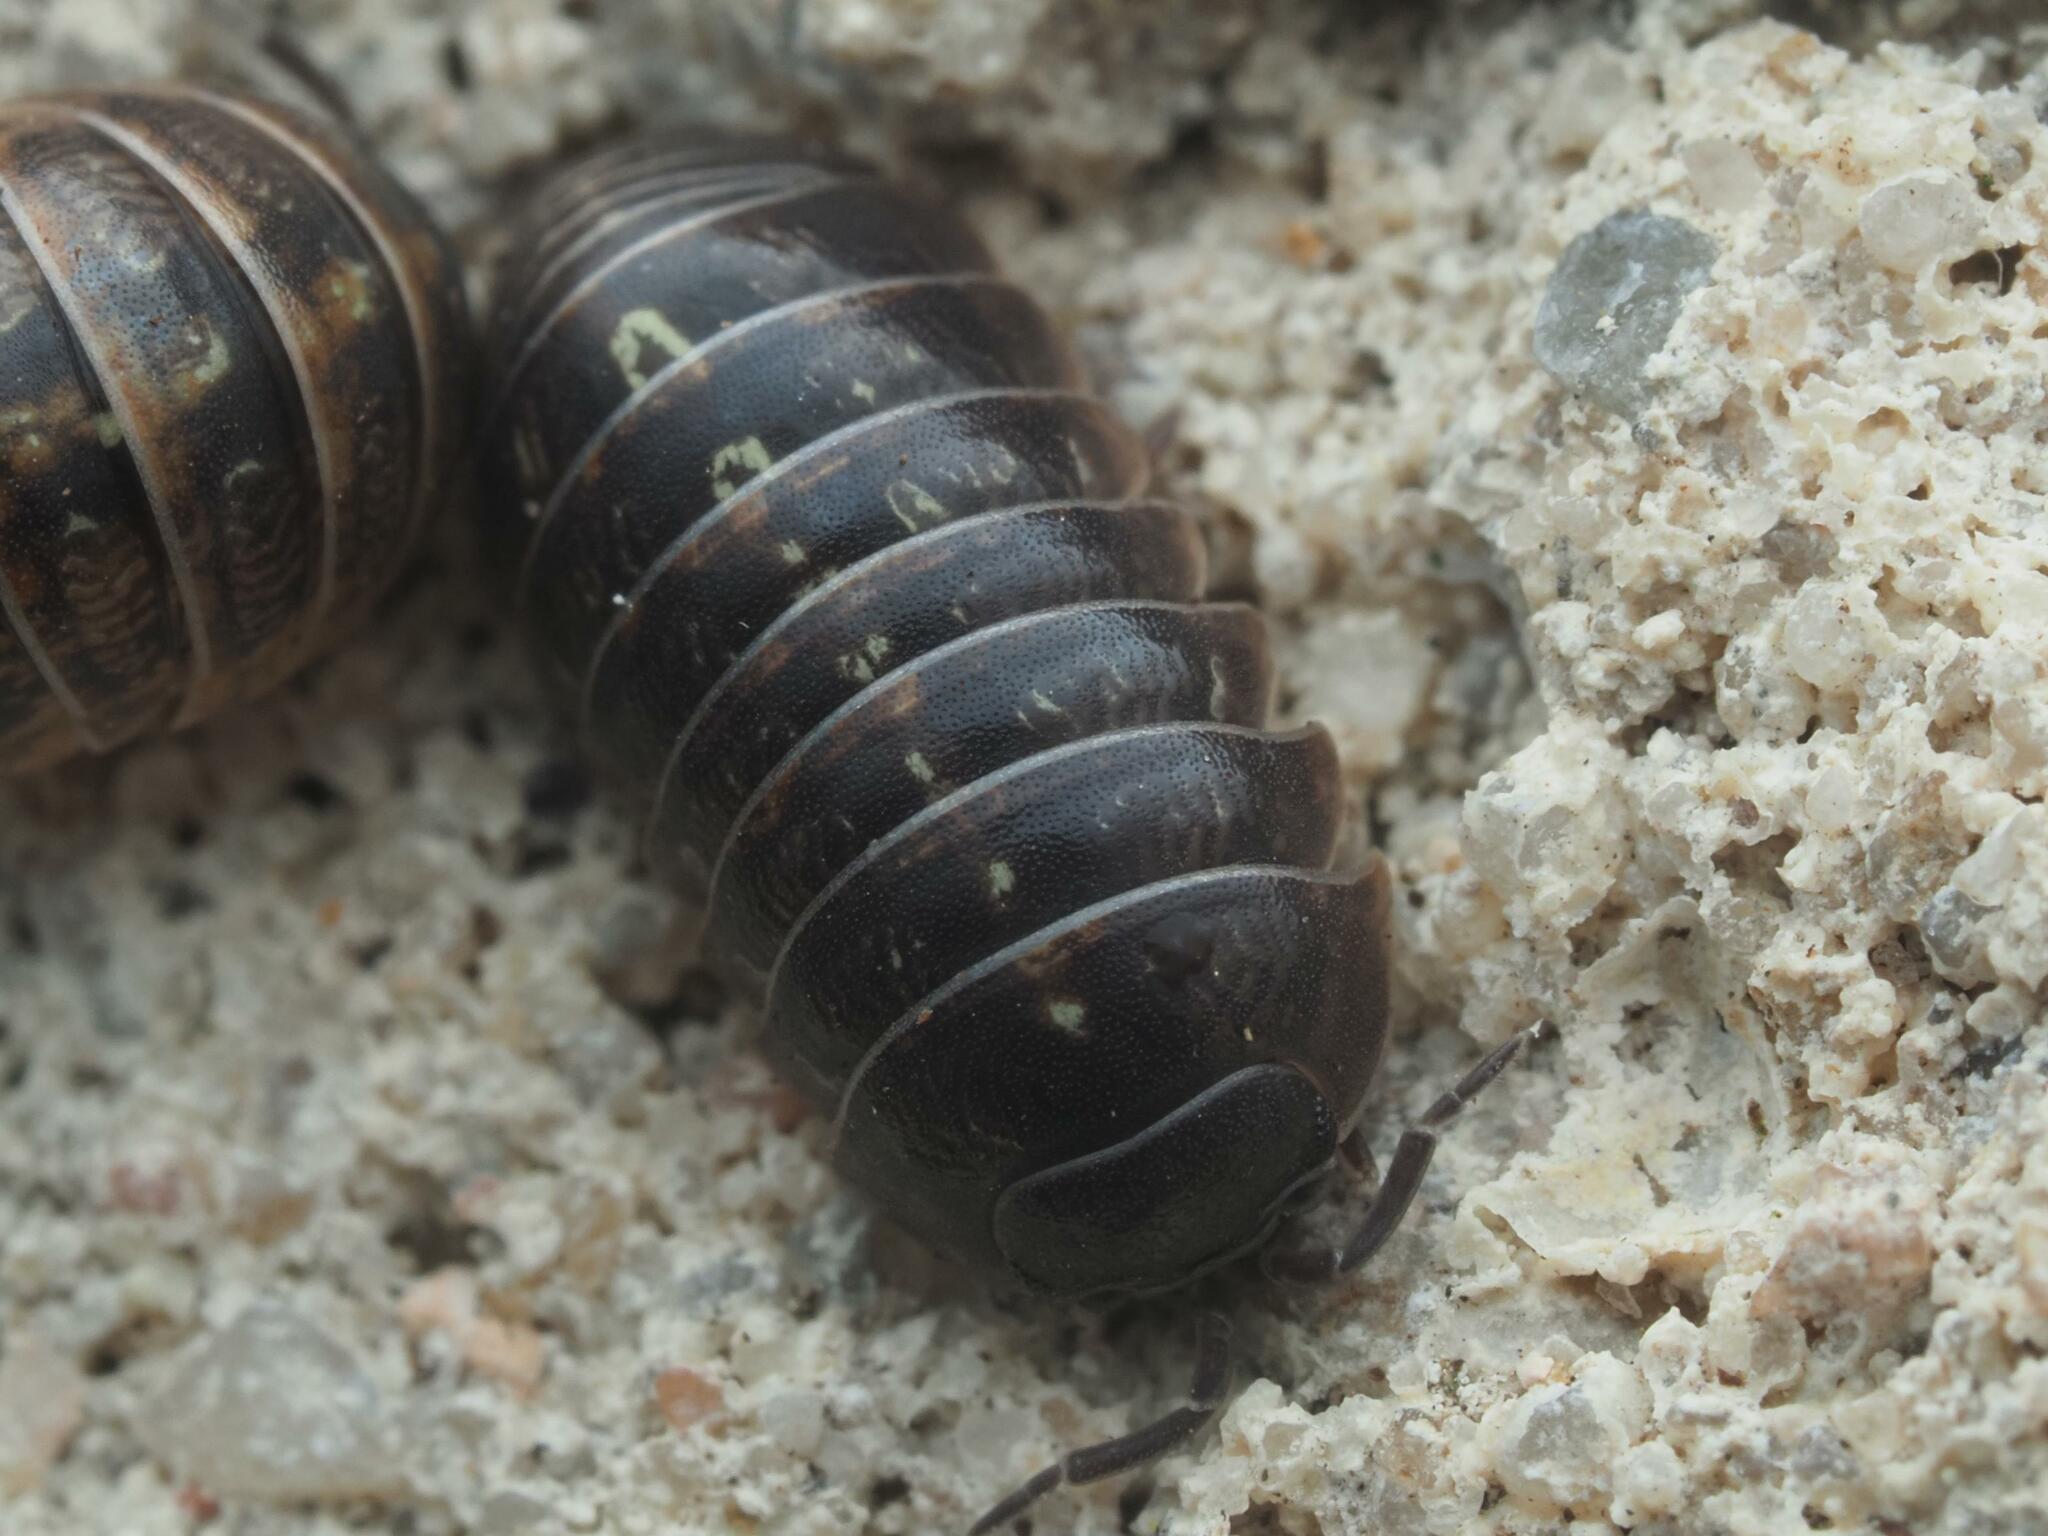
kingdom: Animalia
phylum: Arthropoda
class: Malacostraca
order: Isopoda
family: Armadillidiidae
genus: Armadillidium
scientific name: Armadillidium vulgare
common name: Common pill woodlouse
